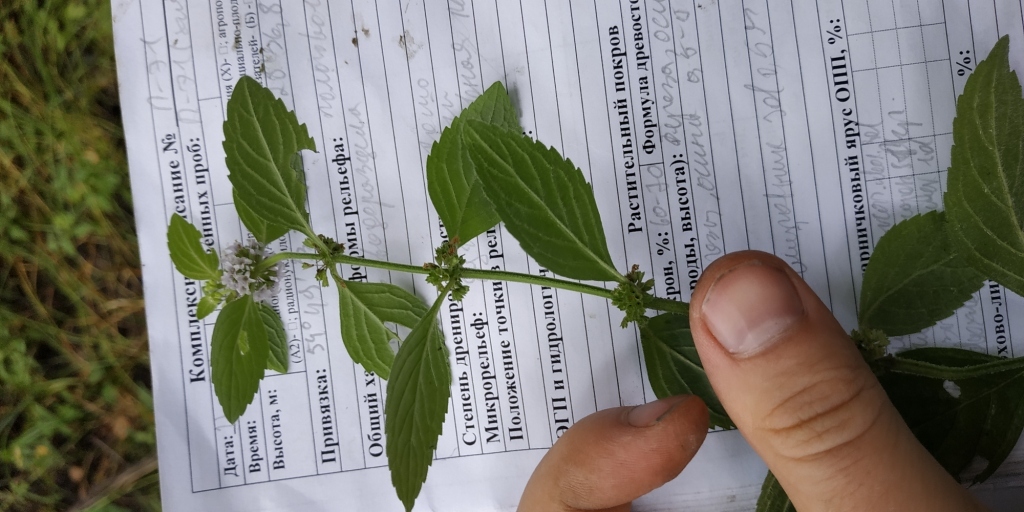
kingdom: Plantae
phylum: Tracheophyta
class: Magnoliopsida
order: Lamiales
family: Lamiaceae
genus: Mentha
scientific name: Mentha arvensis
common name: Corn mint
